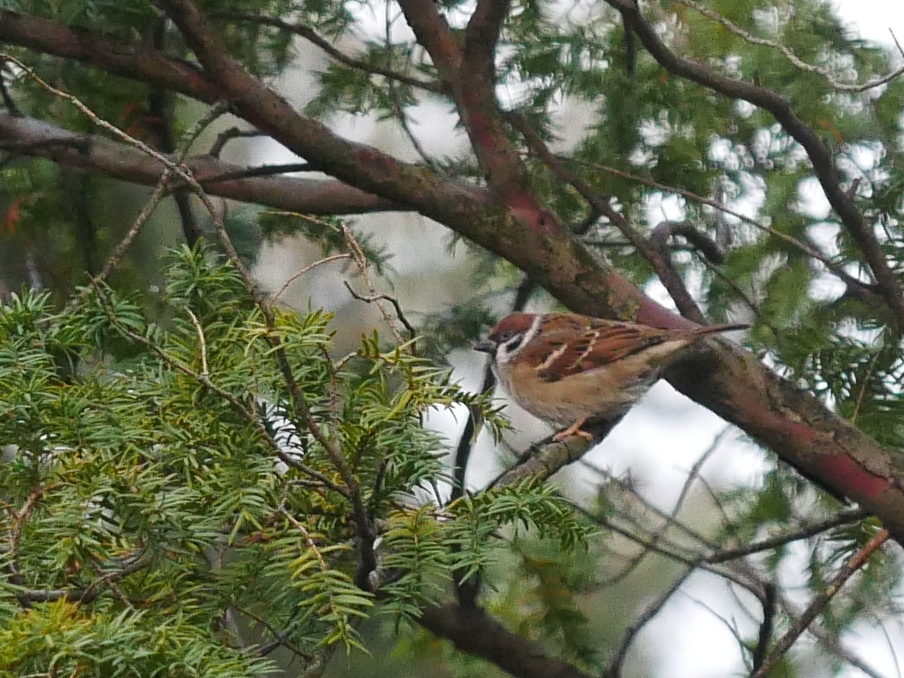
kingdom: Animalia
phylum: Chordata
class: Aves
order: Passeriformes
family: Passeridae
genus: Passer
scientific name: Passer montanus
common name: Eurasian tree sparrow
